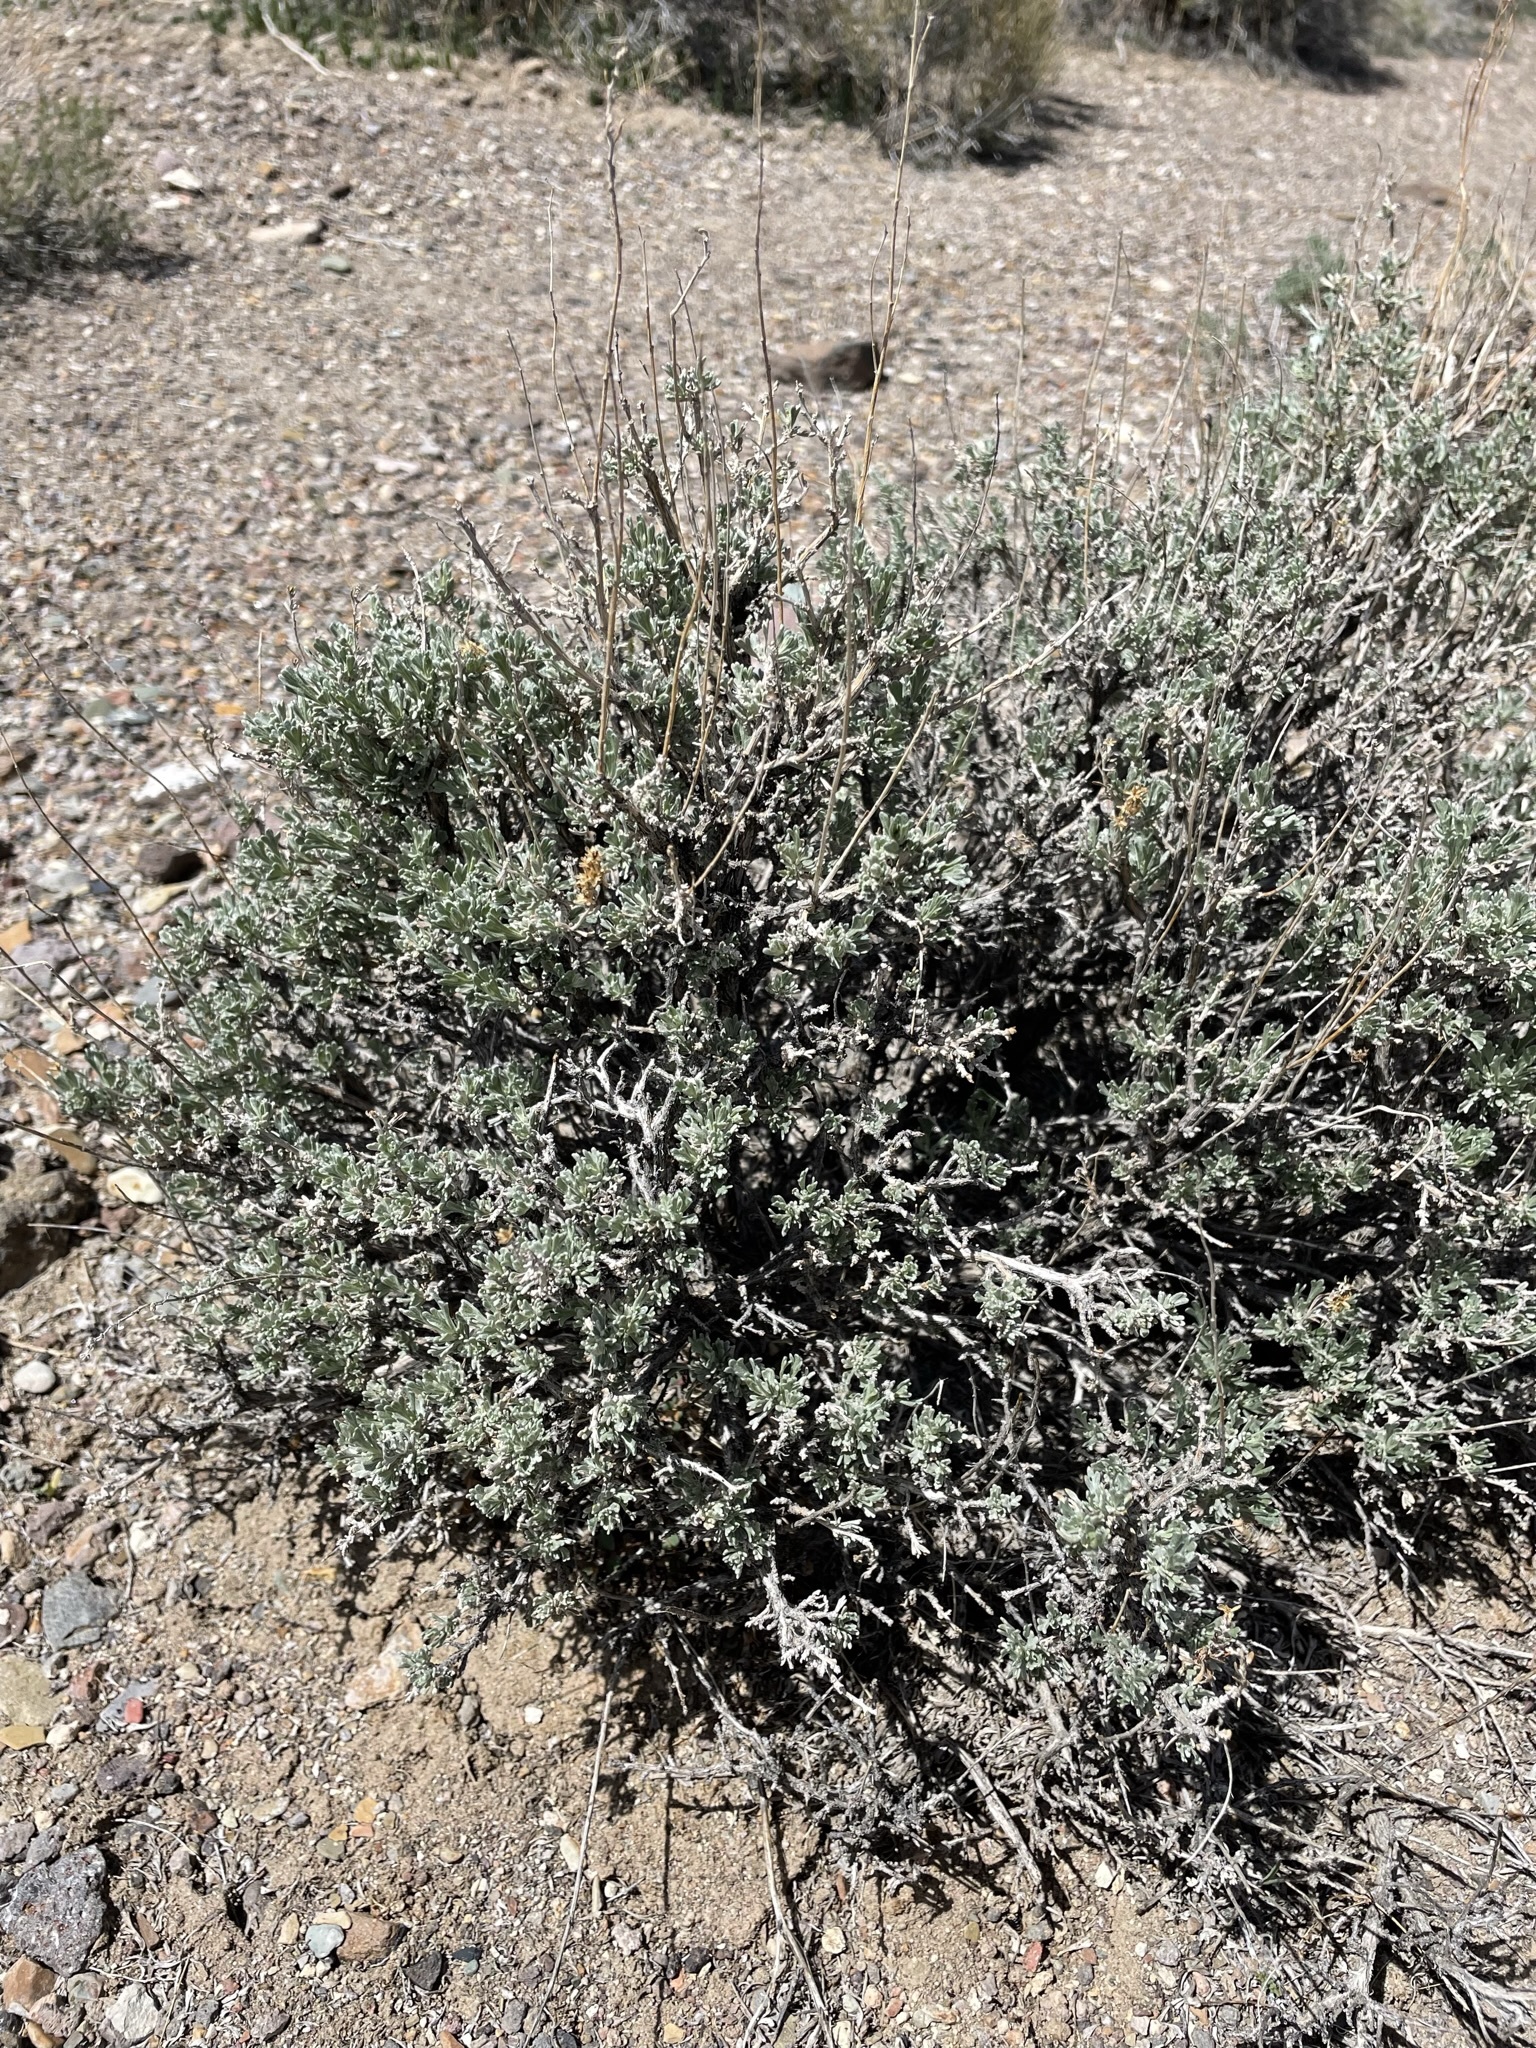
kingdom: Plantae
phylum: Tracheophyta
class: Magnoliopsida
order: Asterales
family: Asteraceae
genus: Artemisia
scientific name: Artemisia nova
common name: Black-sage
